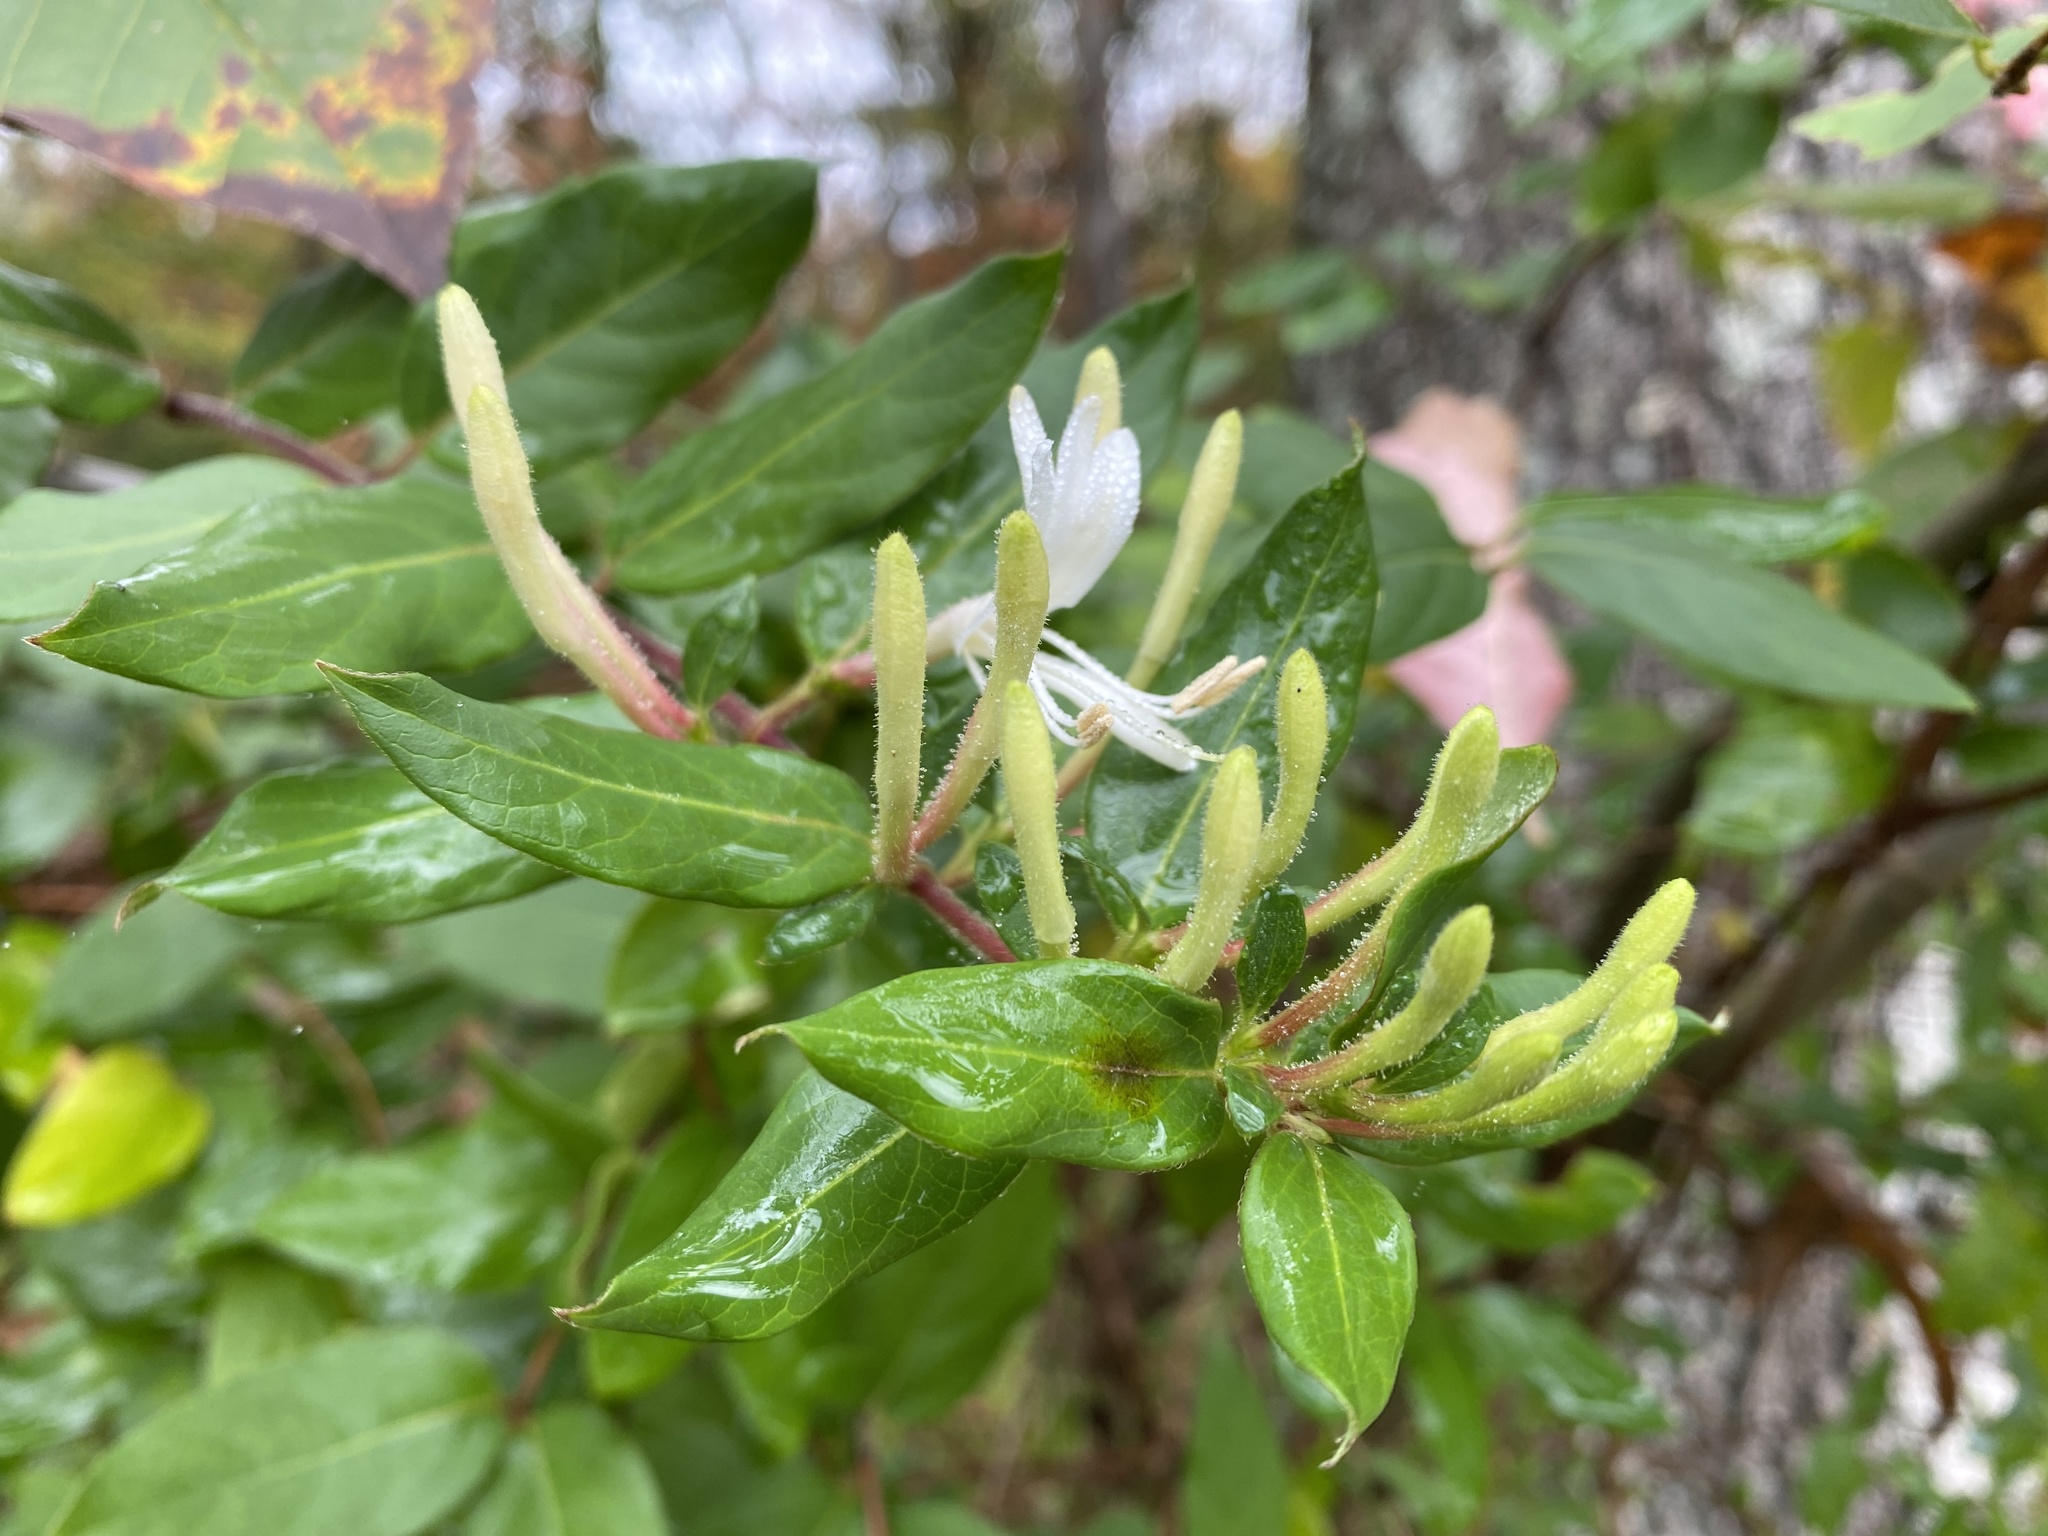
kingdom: Plantae
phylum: Tracheophyta
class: Magnoliopsida
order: Dipsacales
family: Caprifoliaceae
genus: Lonicera
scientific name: Lonicera japonica
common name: Japanese honeysuckle
